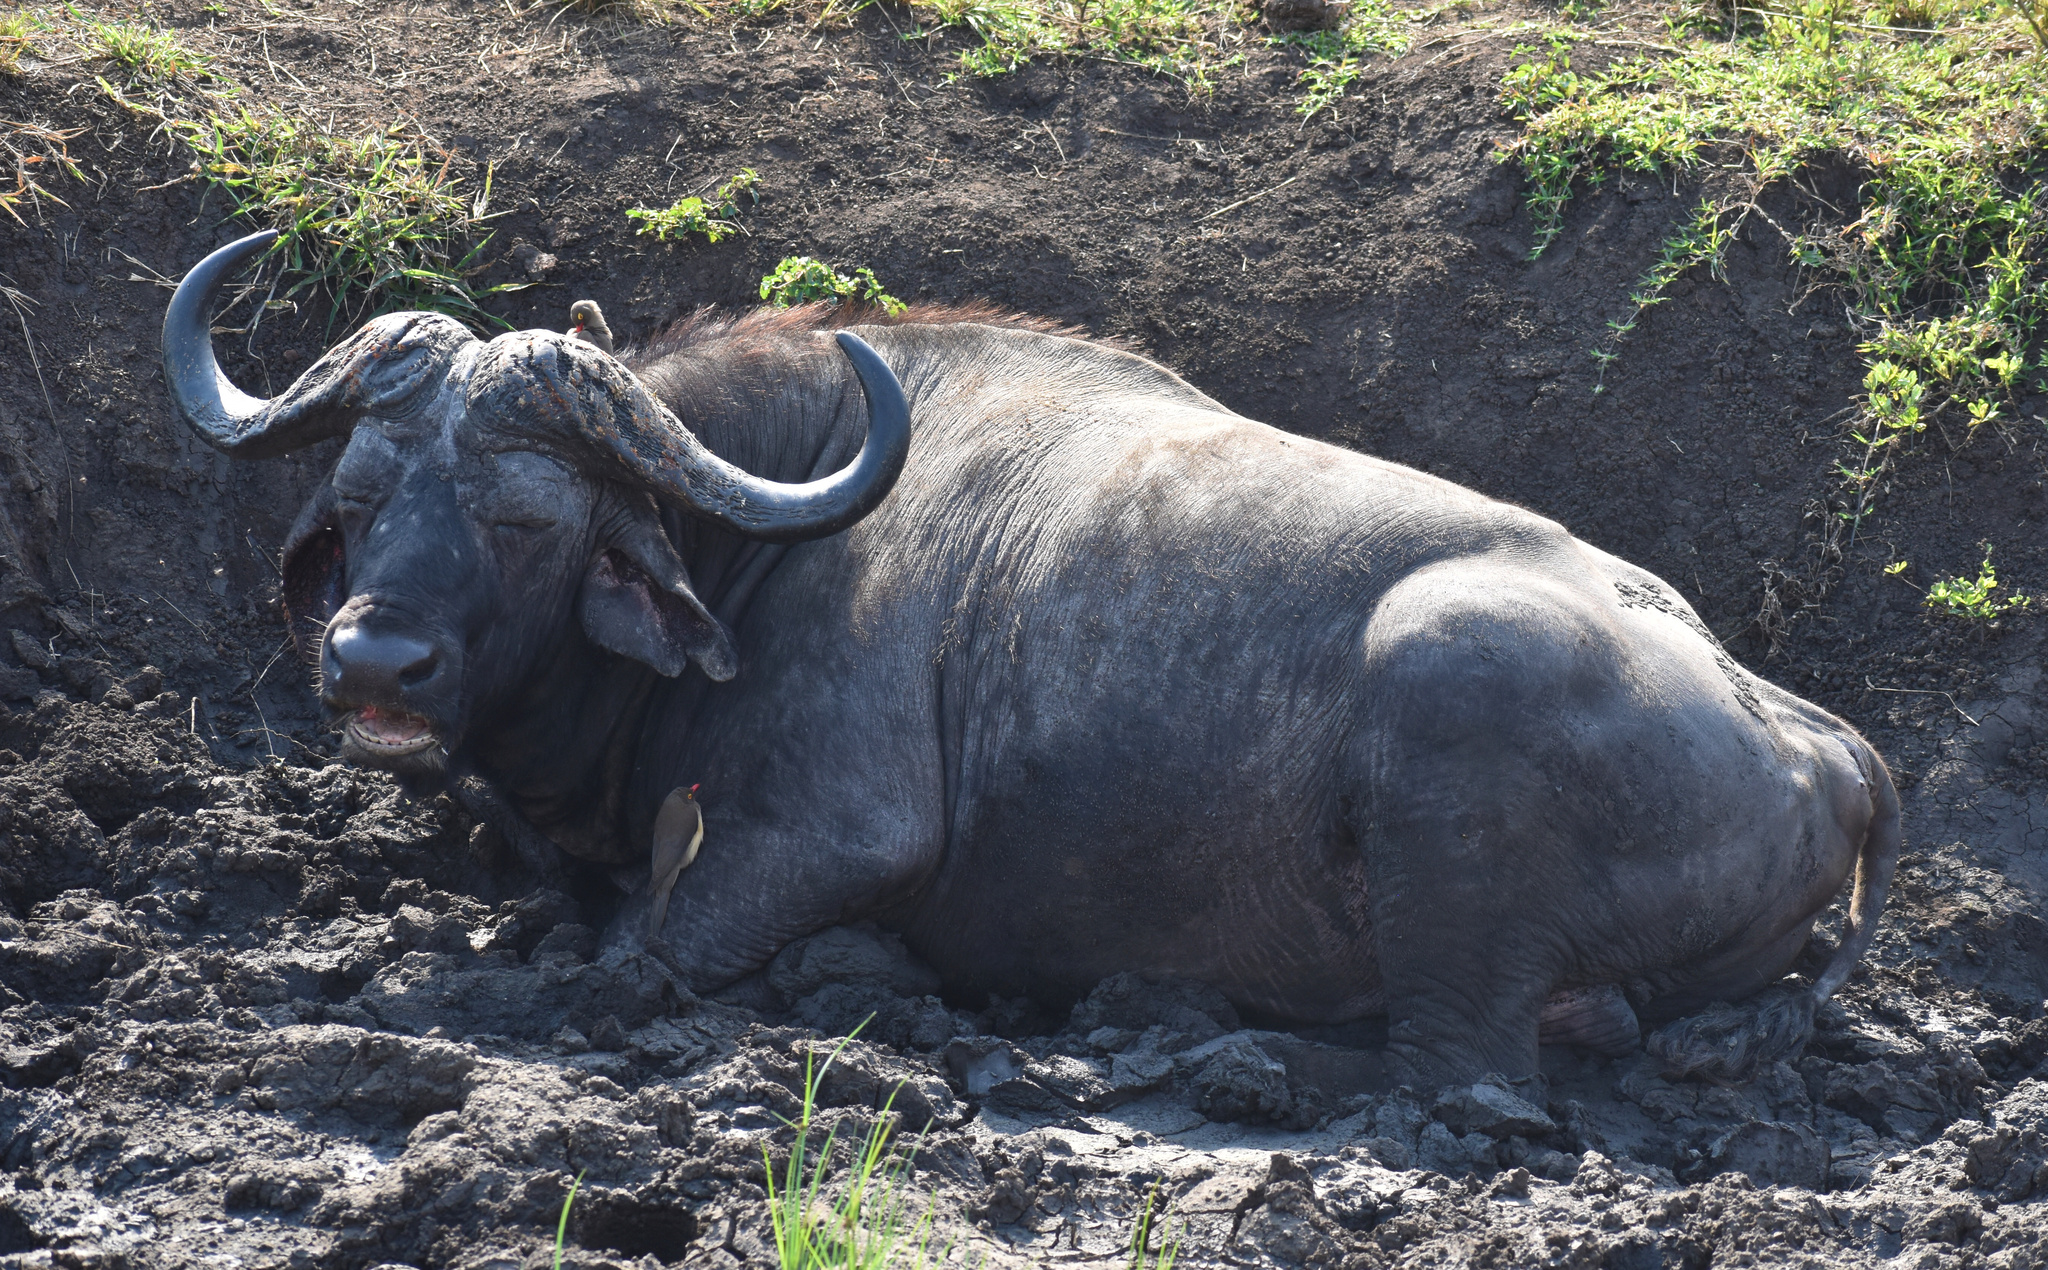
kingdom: Animalia
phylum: Chordata
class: Mammalia
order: Artiodactyla
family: Bovidae
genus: Syncerus
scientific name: Syncerus caffer
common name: African buffalo
